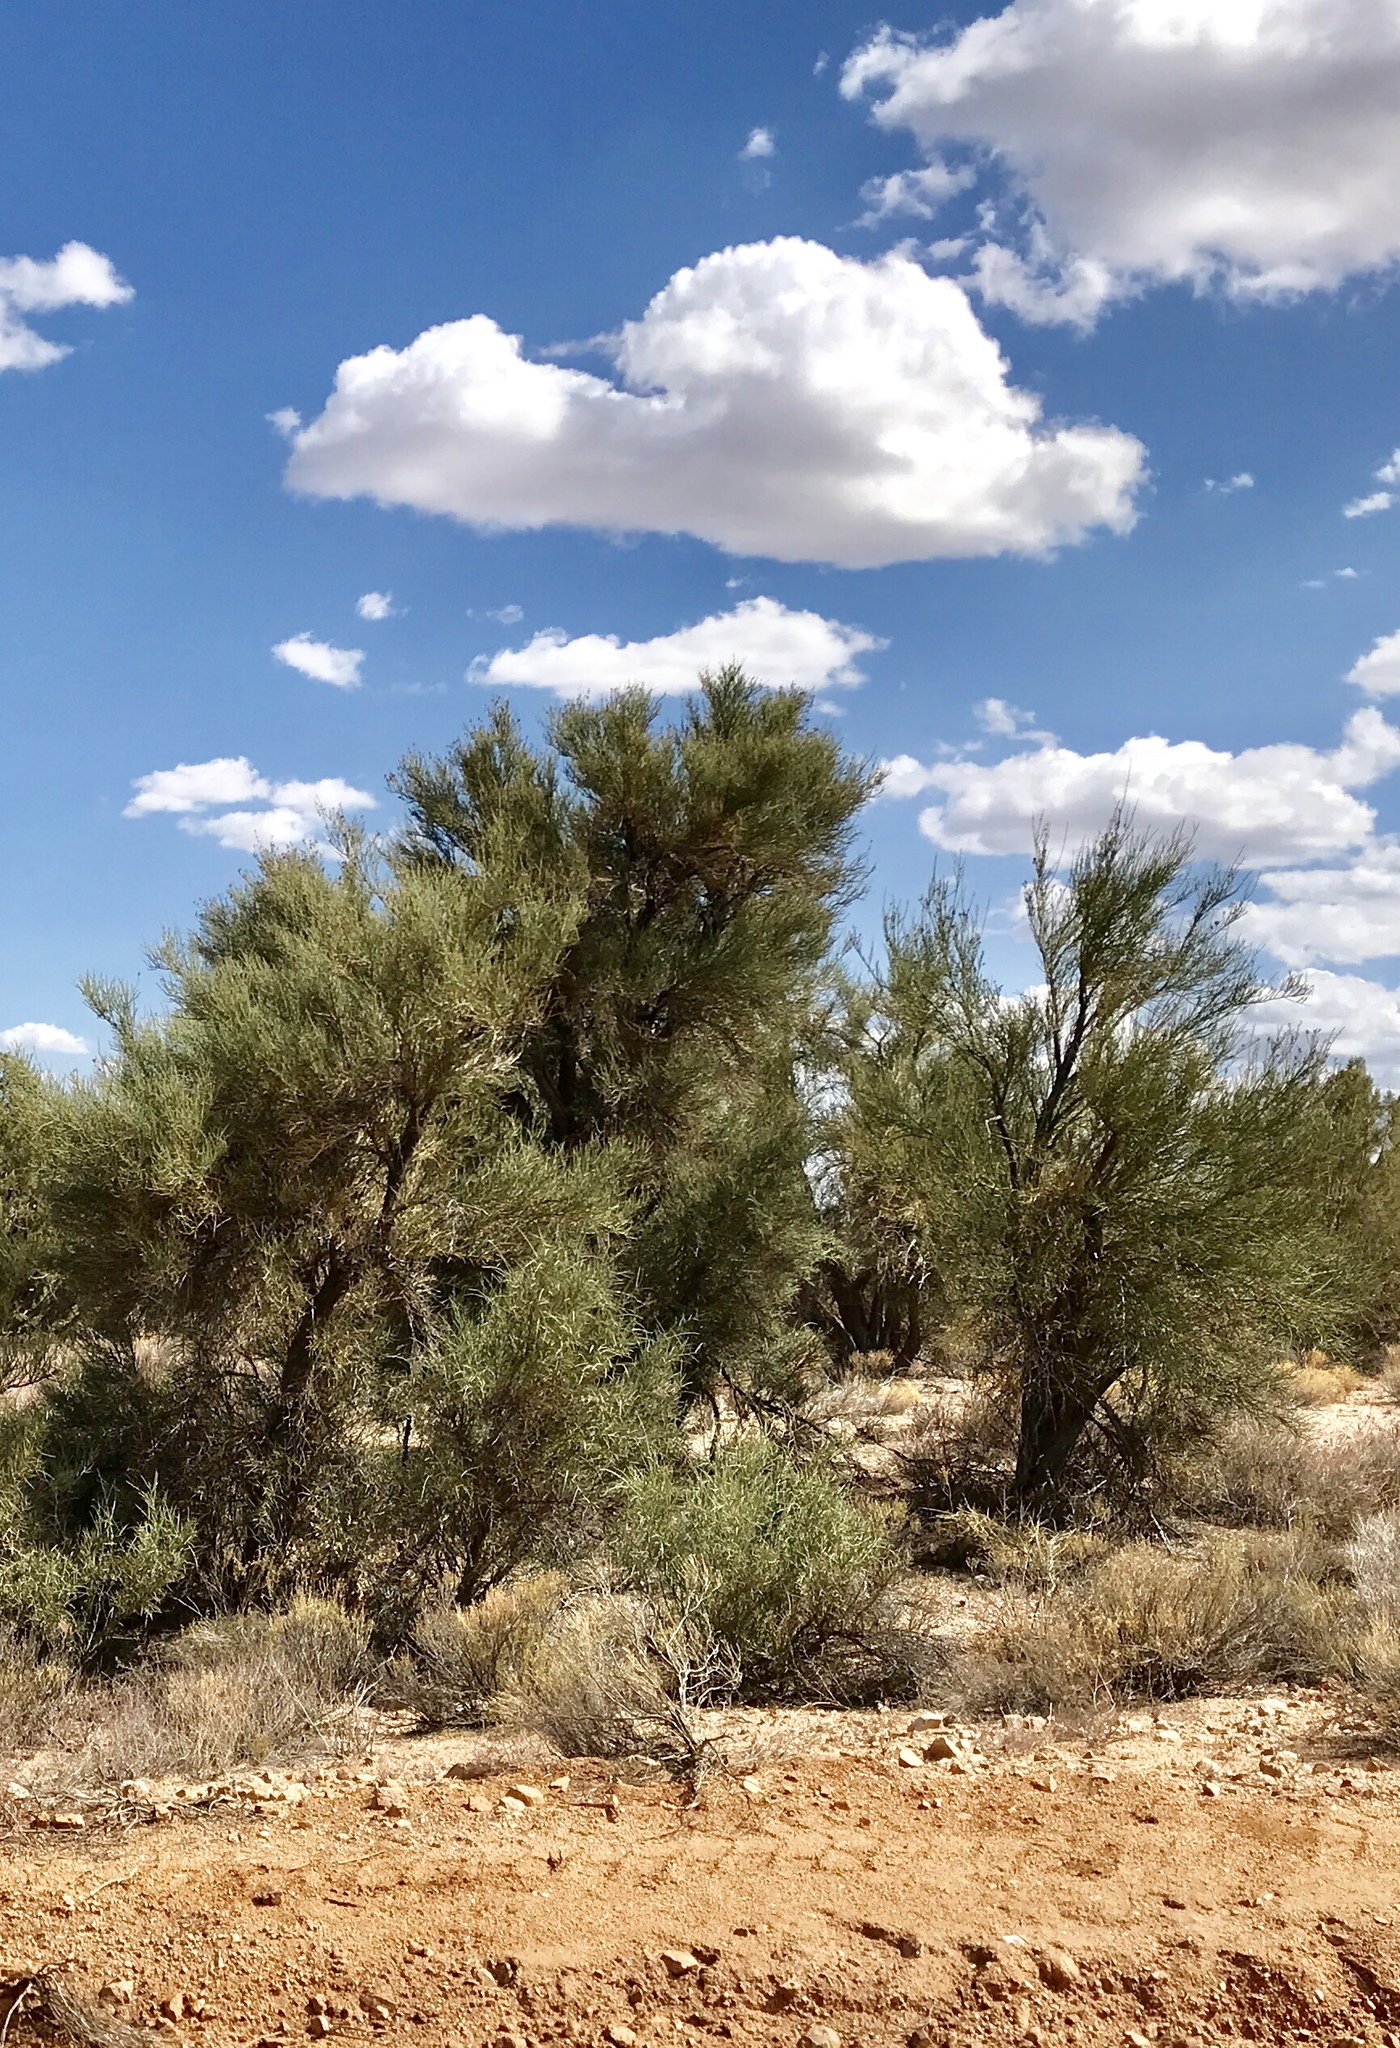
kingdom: Plantae
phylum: Tracheophyta
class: Magnoliopsida
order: Celastrales
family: Celastraceae
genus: Canotia
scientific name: Canotia holacantha
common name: Crucifixion thorns
